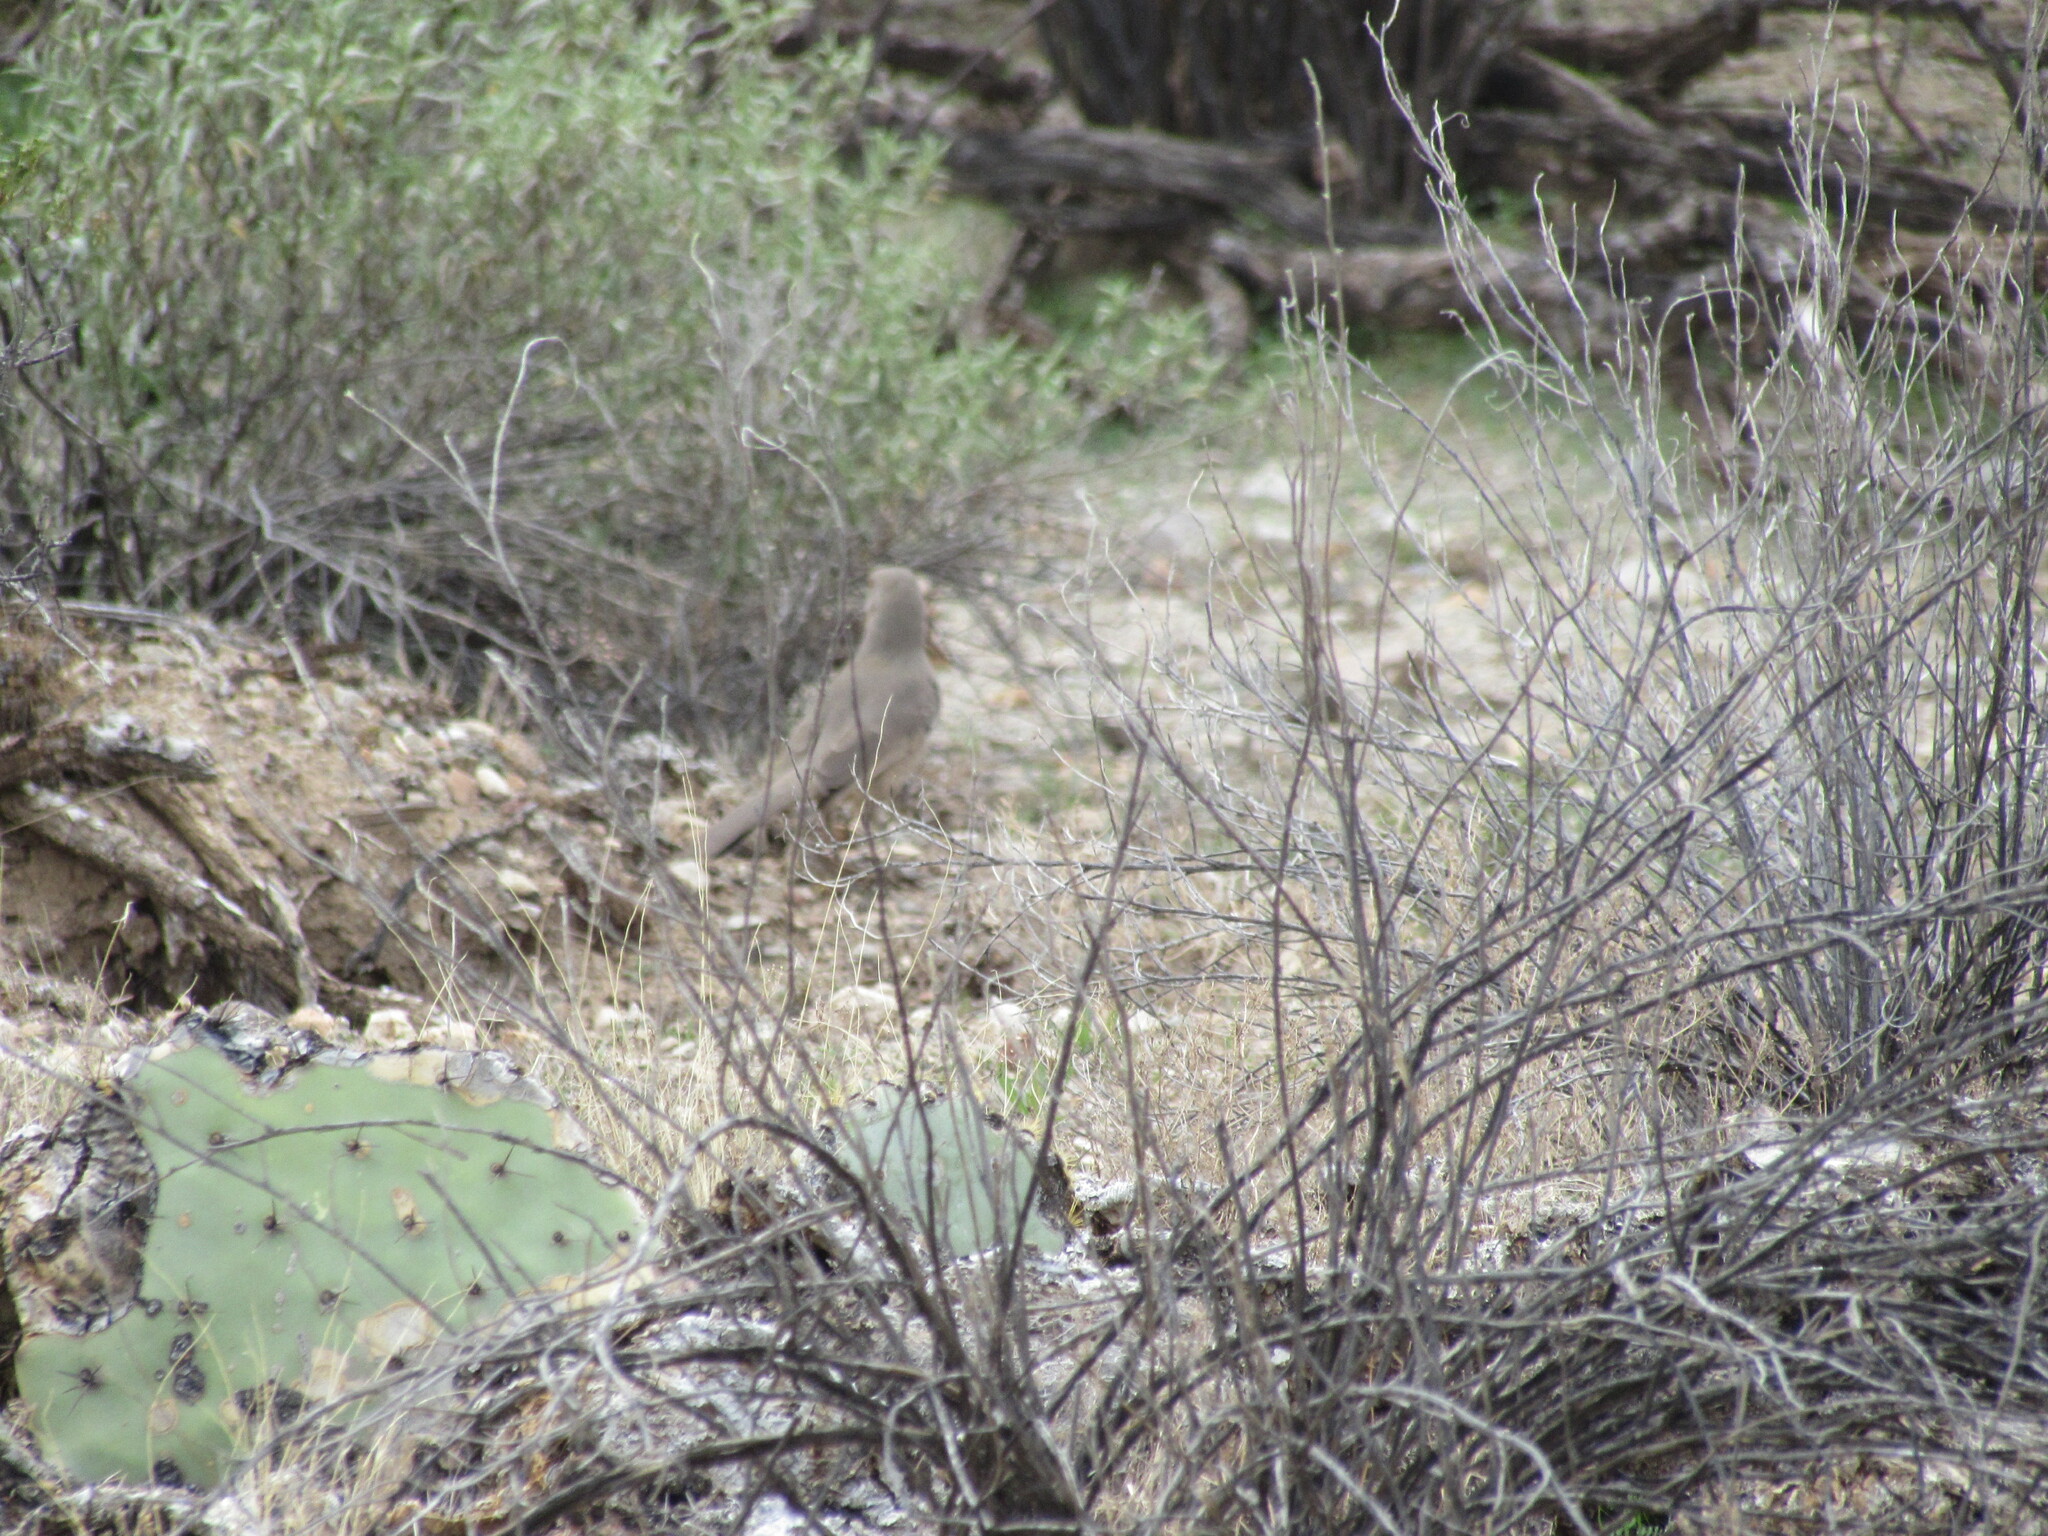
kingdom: Animalia
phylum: Chordata
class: Aves
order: Passeriformes
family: Mimidae
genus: Toxostoma
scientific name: Toxostoma curvirostre
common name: Curve-billed thrasher
